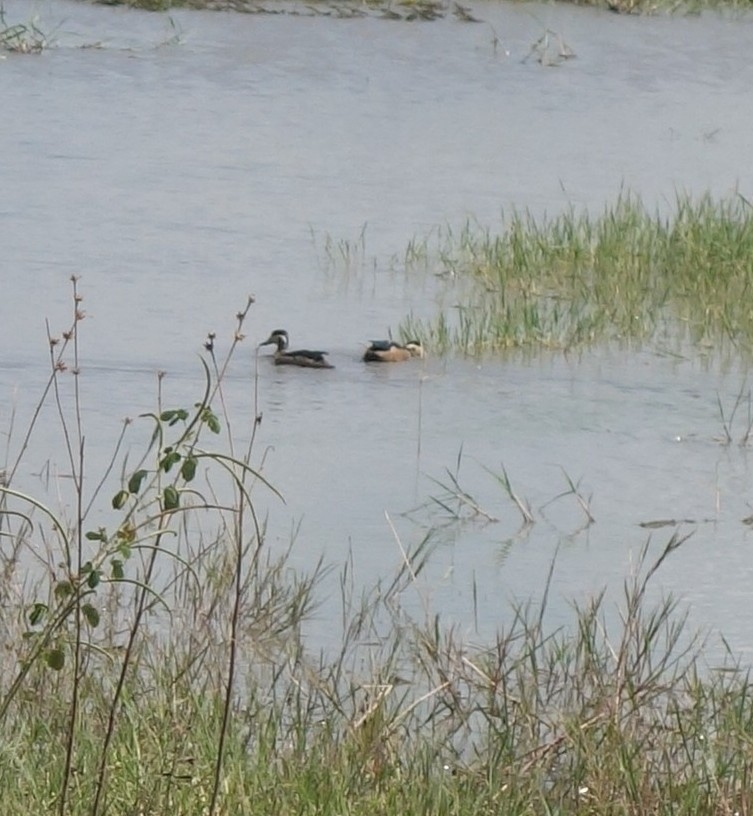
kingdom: Animalia
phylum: Chordata
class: Aves
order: Anseriformes
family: Anatidae
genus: Spatula
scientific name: Spatula hottentota
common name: Blue-billed teal
